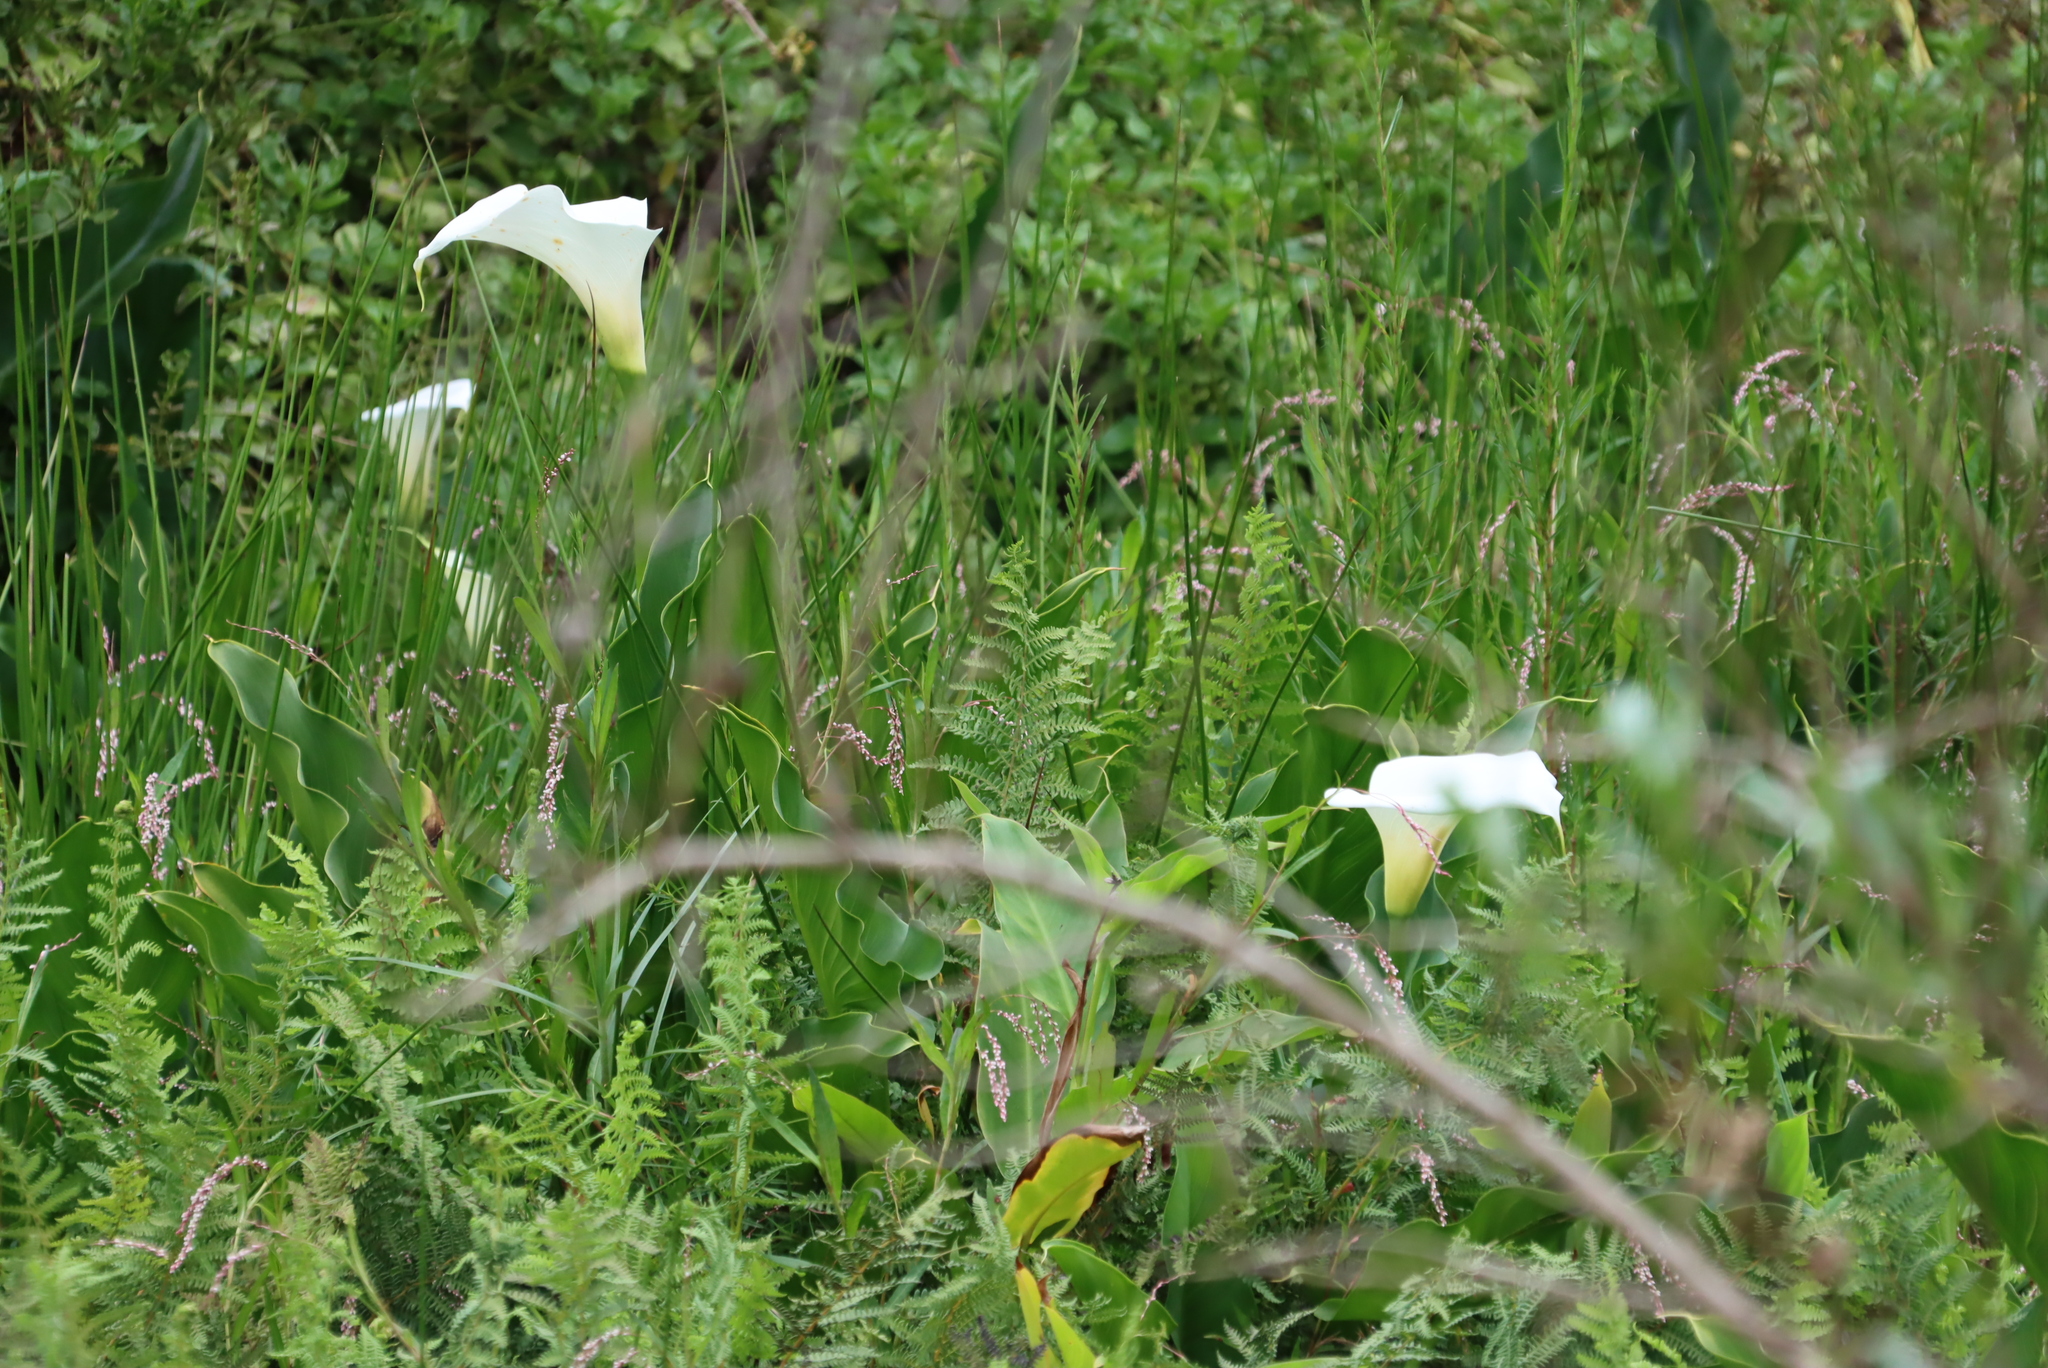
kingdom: Plantae
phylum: Tracheophyta
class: Liliopsida
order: Alismatales
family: Araceae
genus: Zantedeschia
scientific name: Zantedeschia aethiopica
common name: Altar-lily
